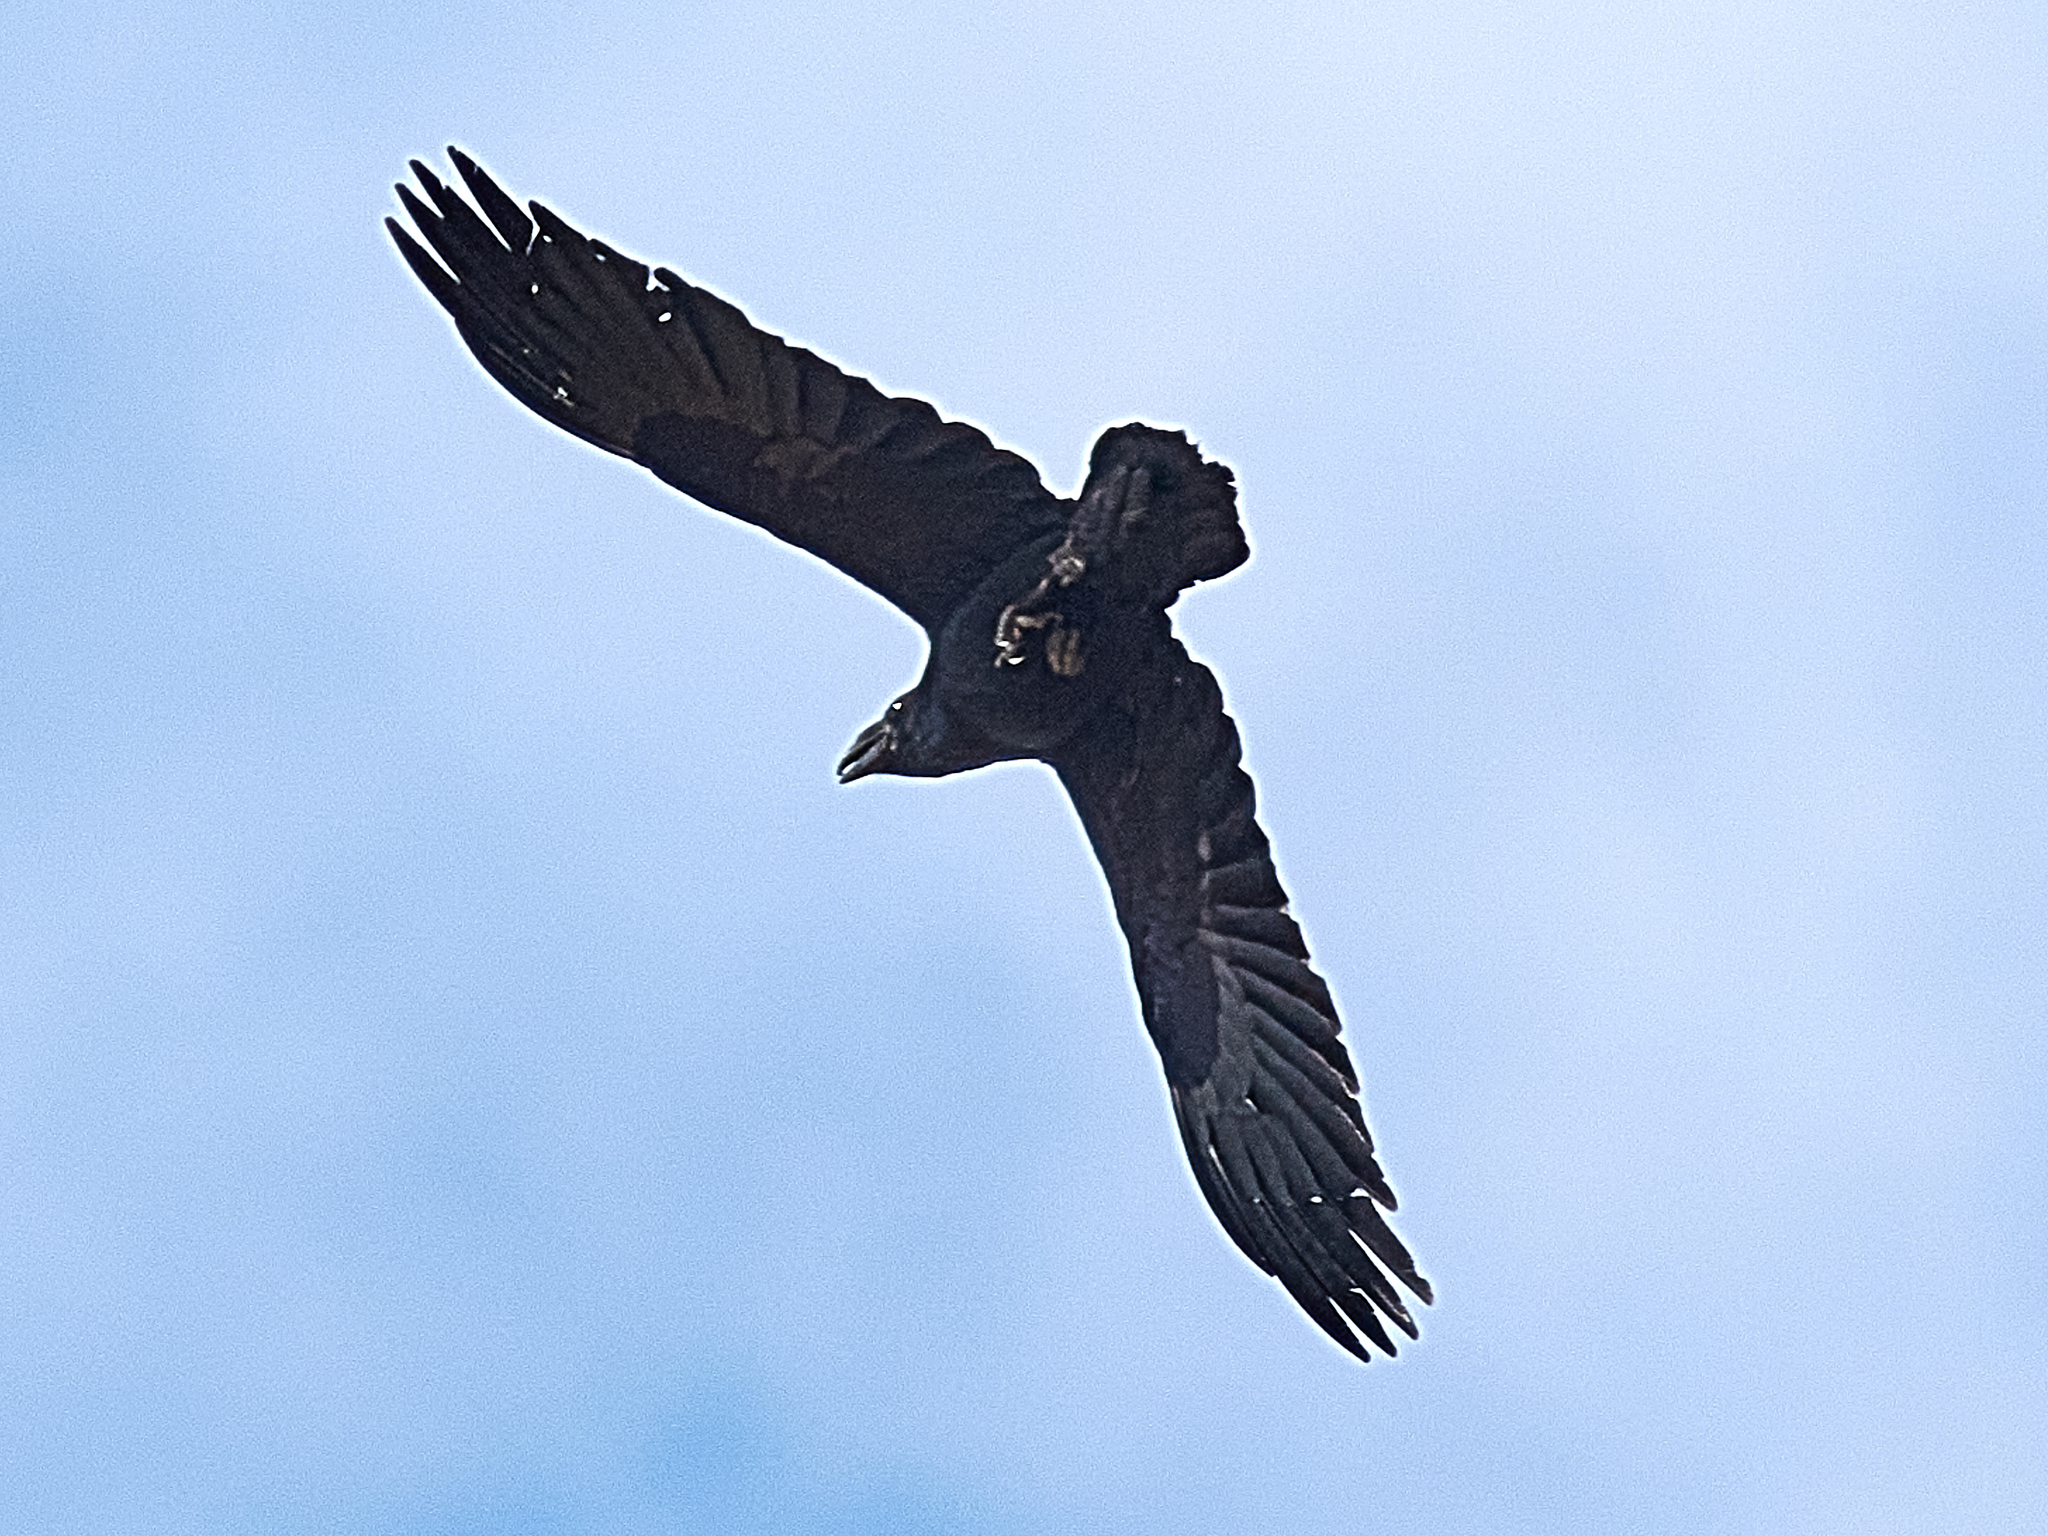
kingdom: Animalia
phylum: Chordata
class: Aves
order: Passeriformes
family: Corvidae
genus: Corvus
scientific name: Corvus corax
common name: Common raven
